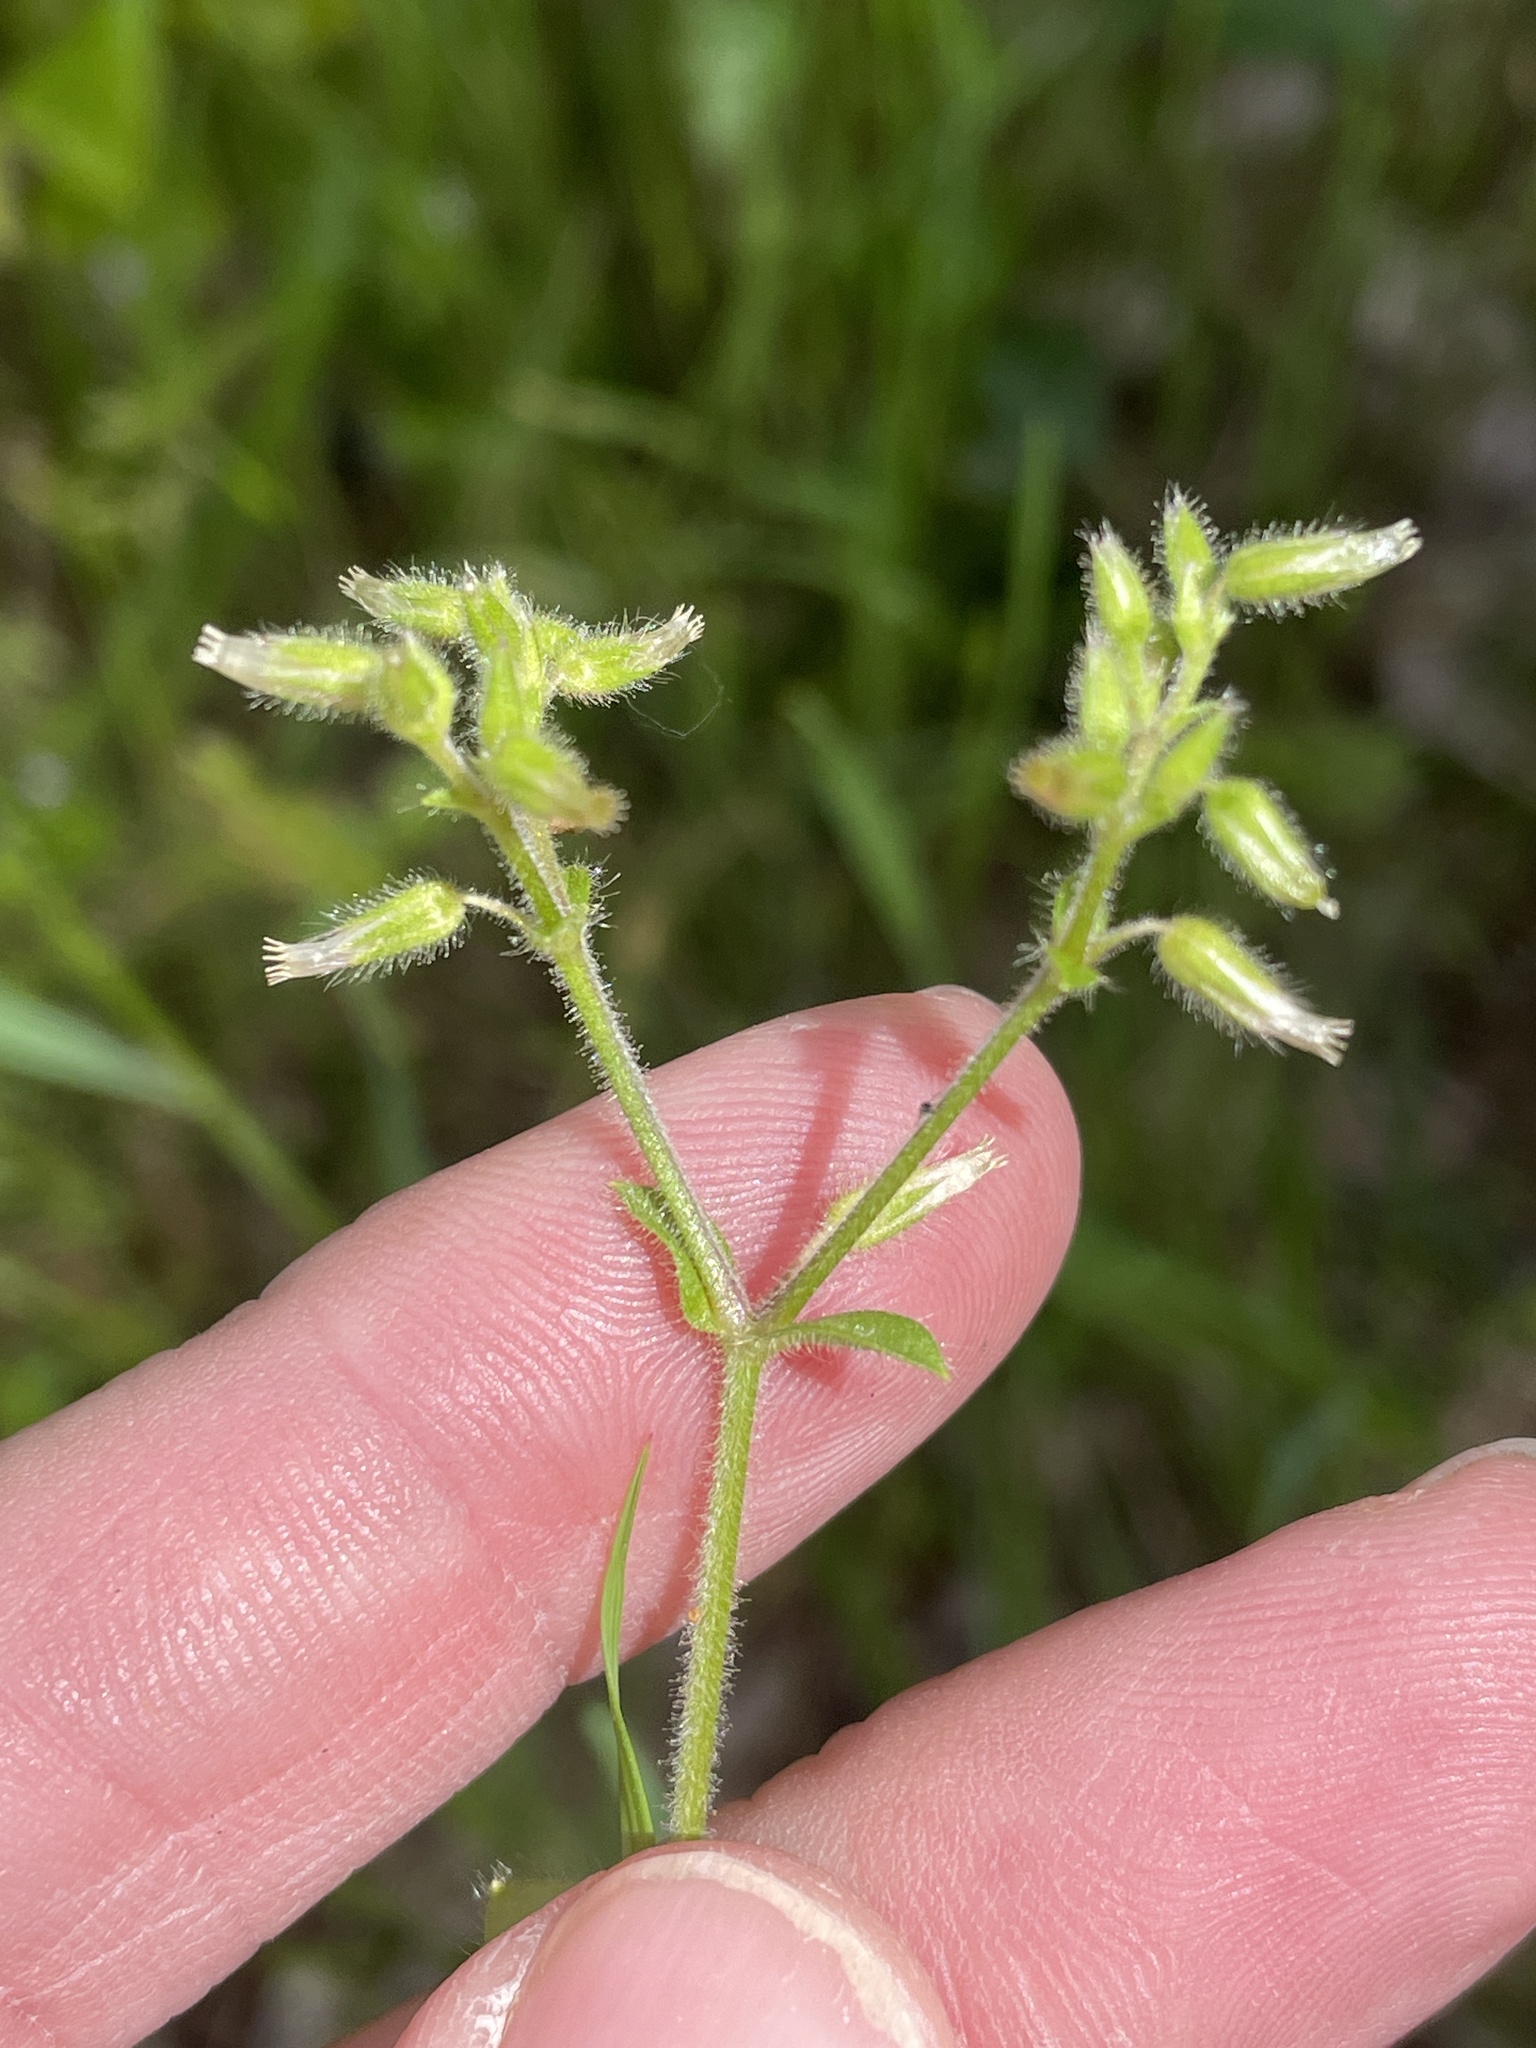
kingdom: Plantae
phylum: Tracheophyta
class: Magnoliopsida
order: Caryophyllales
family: Caryophyllaceae
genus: Cerastium
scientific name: Cerastium glomeratum
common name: Sticky chickweed
